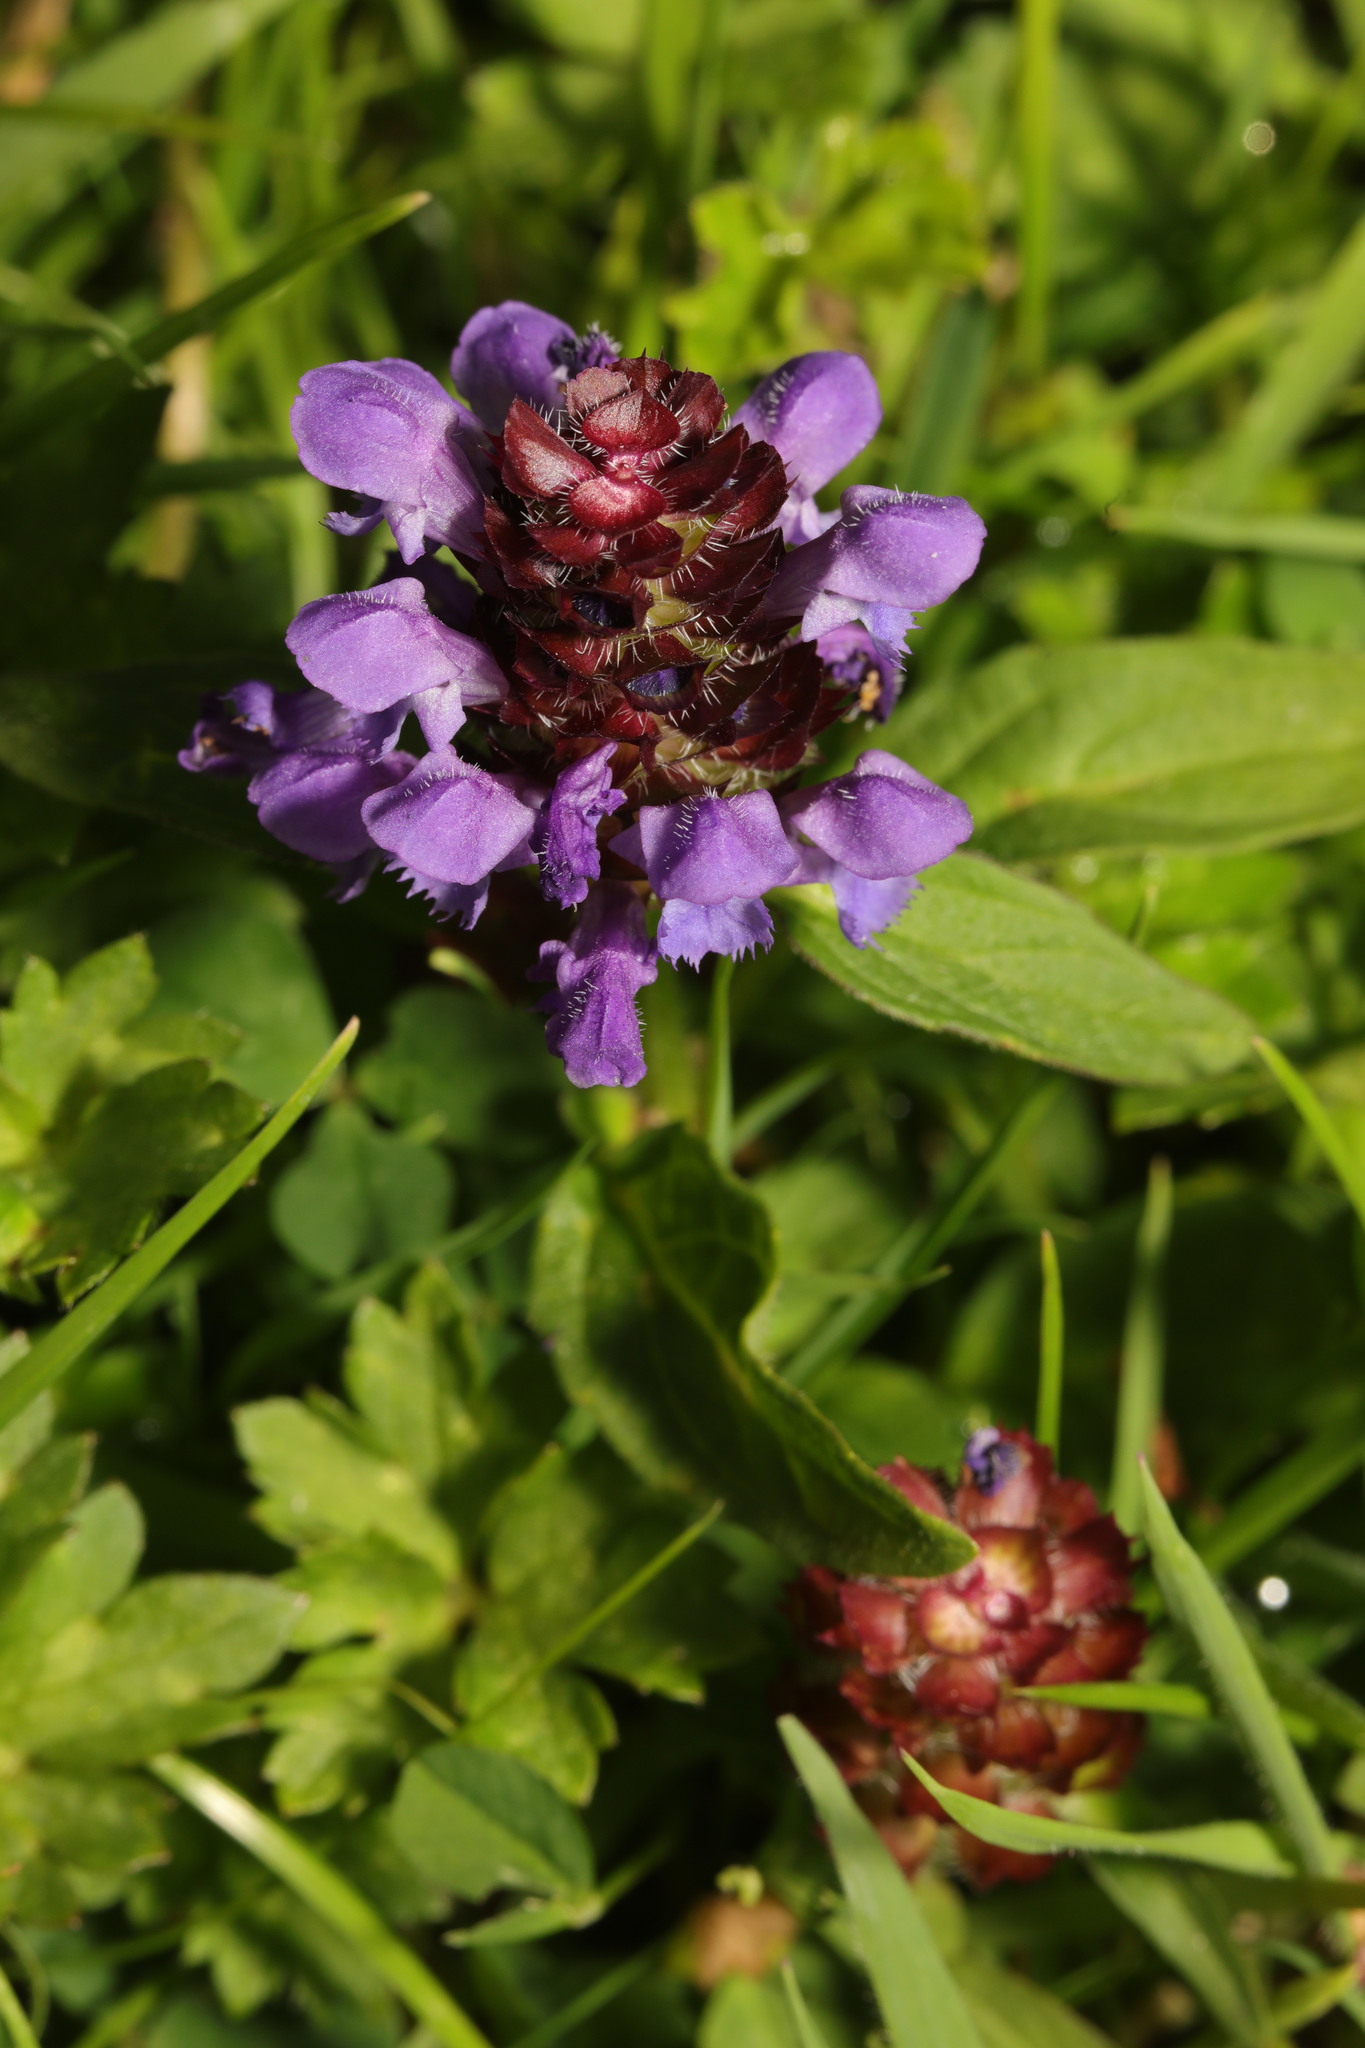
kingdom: Plantae
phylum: Tracheophyta
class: Magnoliopsida
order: Lamiales
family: Lamiaceae
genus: Prunella
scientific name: Prunella vulgaris
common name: Heal-all
